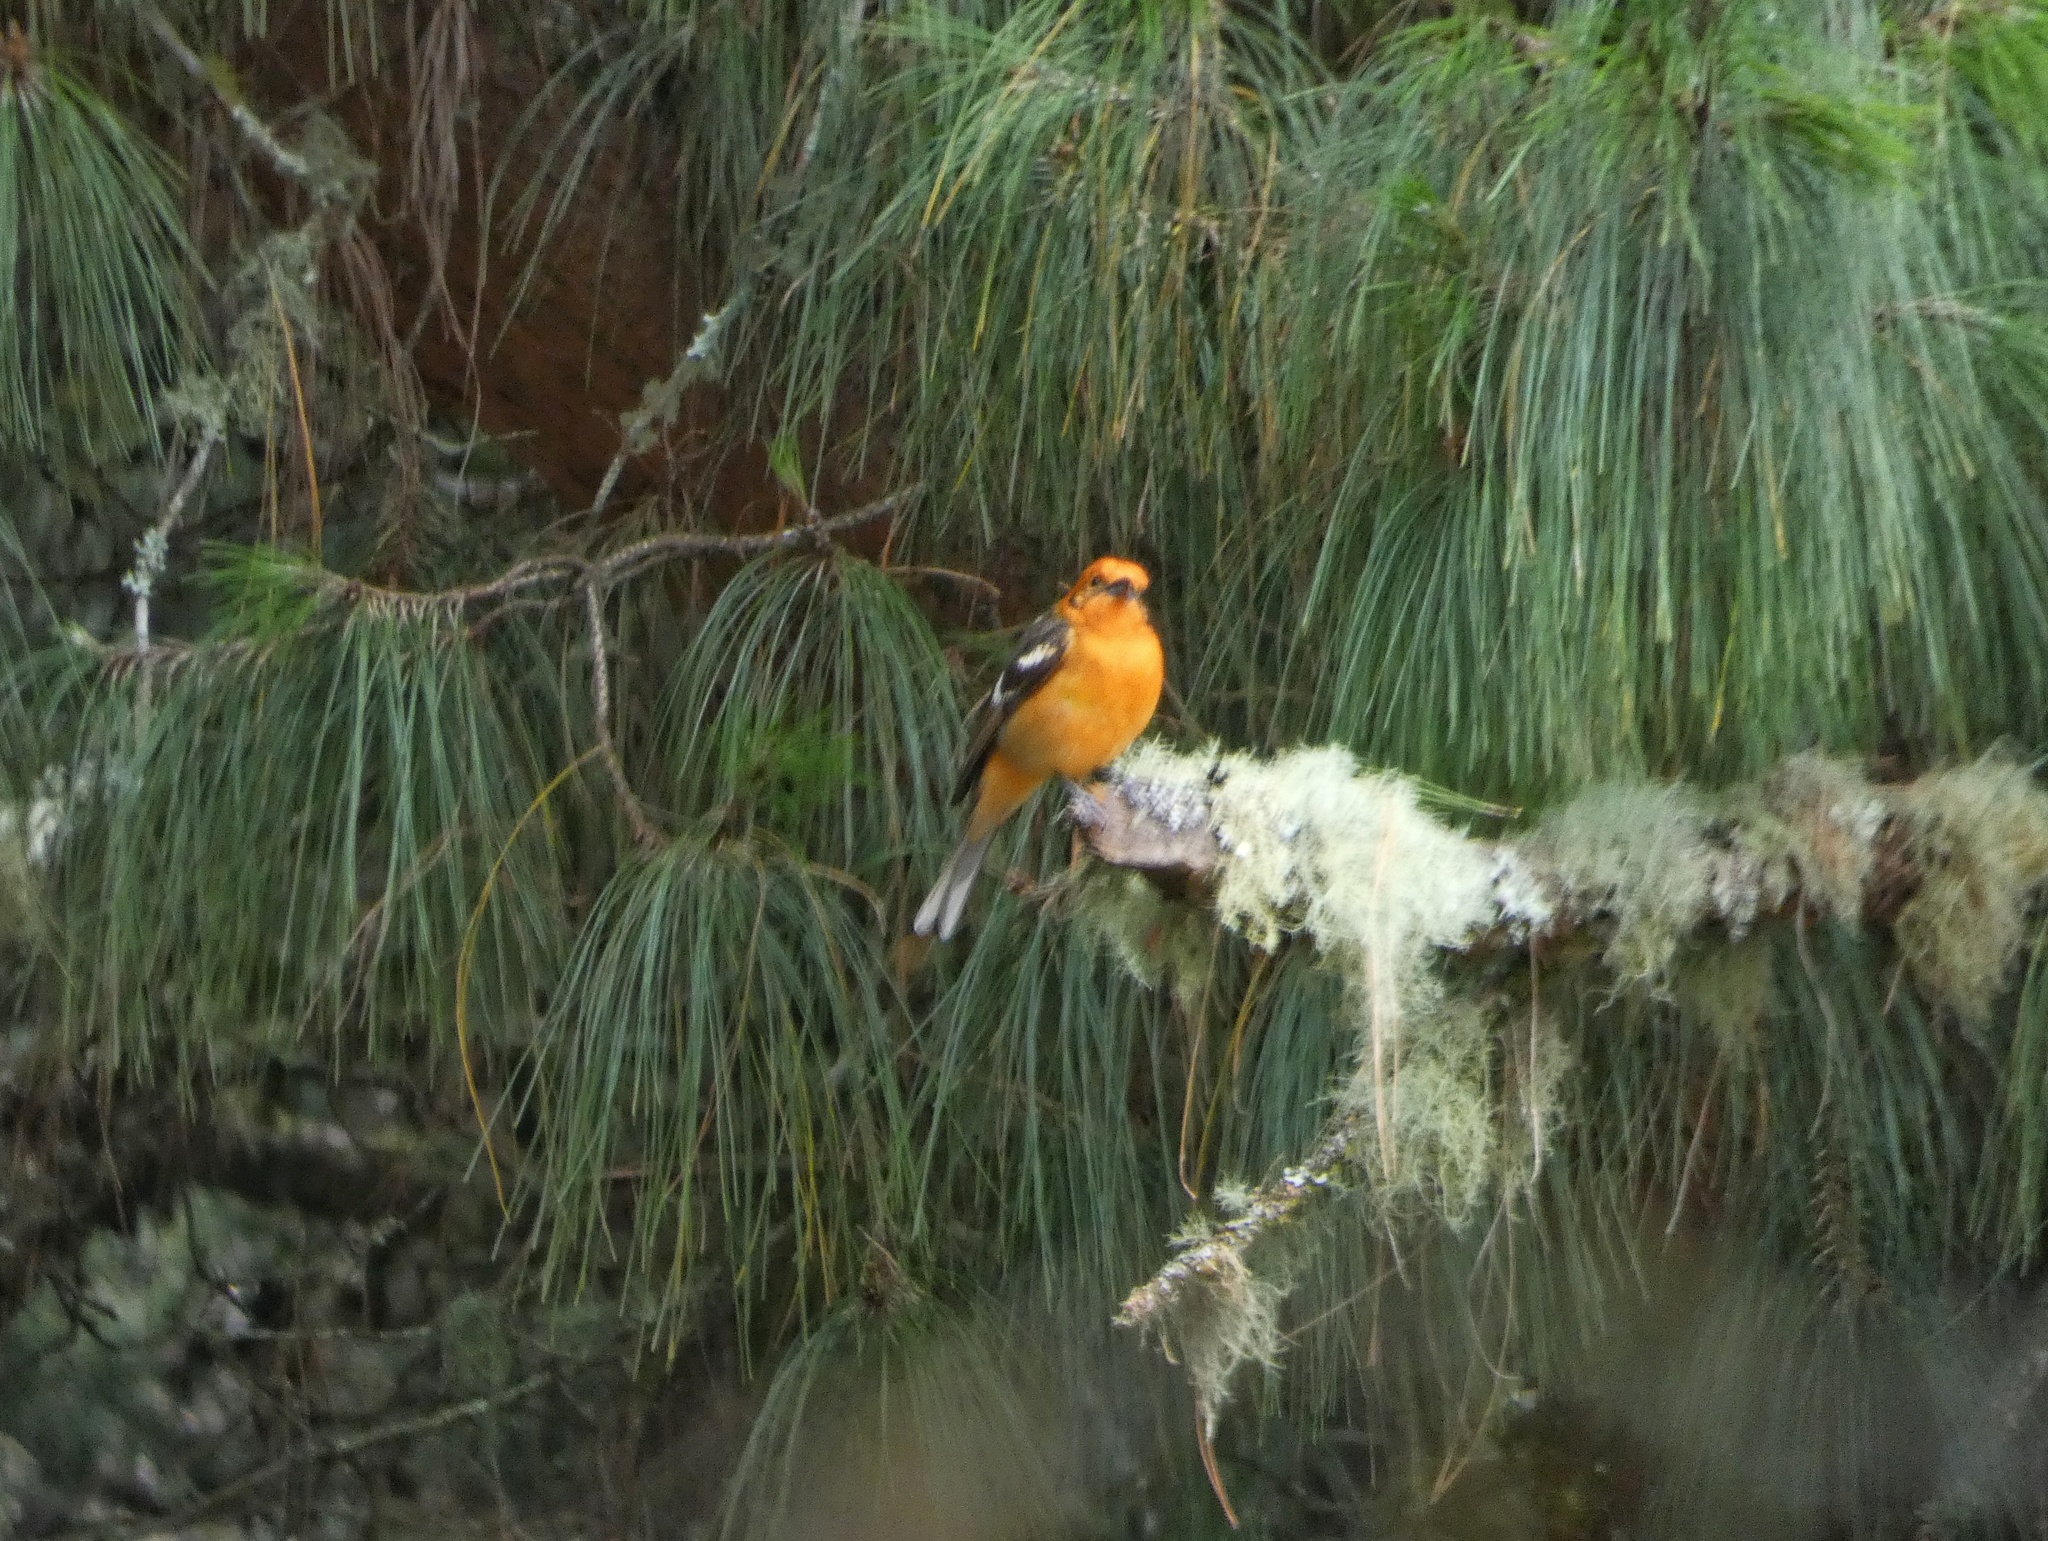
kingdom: Animalia
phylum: Chordata
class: Aves
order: Passeriformes
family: Cardinalidae
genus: Piranga
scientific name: Piranga bidentata
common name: Flame-colored tanager
